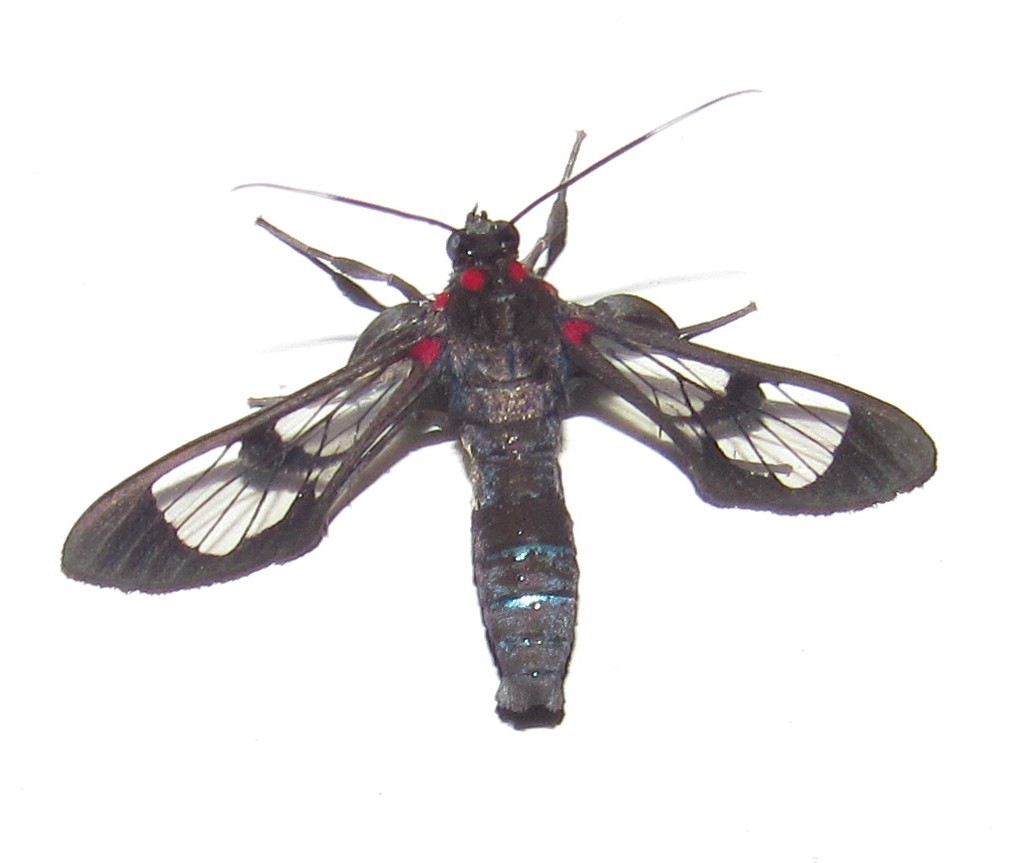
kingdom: Animalia
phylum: Arthropoda
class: Insecta
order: Lepidoptera
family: Erebidae
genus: Pheia
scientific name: Pheia haematosticta
